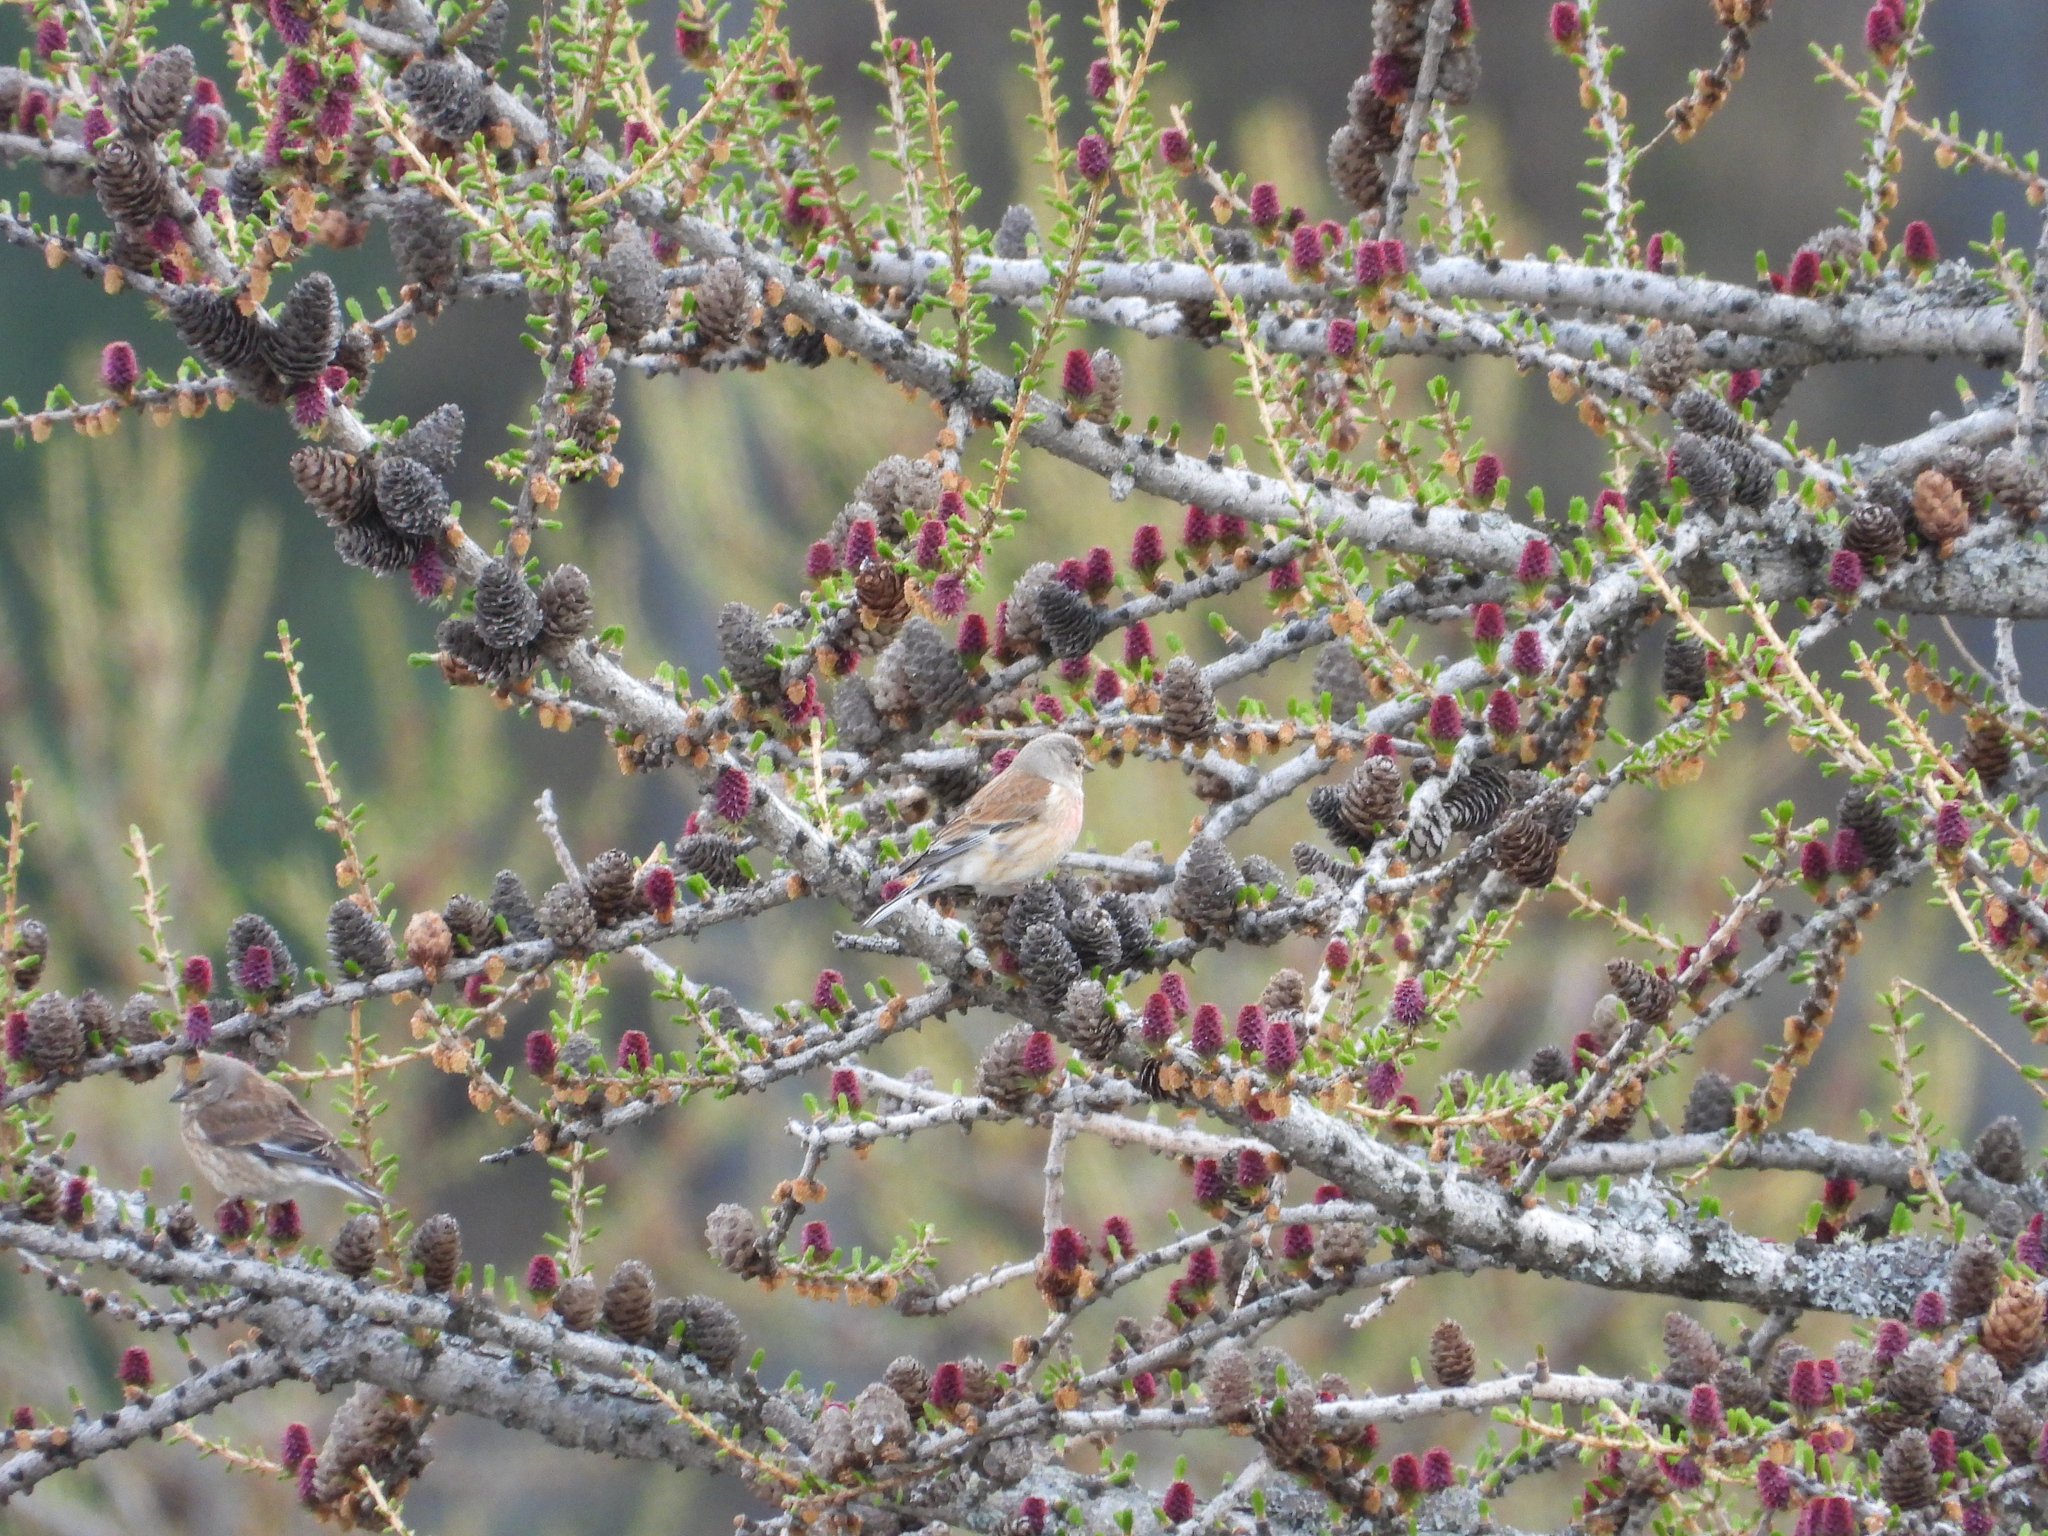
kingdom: Animalia
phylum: Chordata
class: Aves
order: Passeriformes
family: Fringillidae
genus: Linaria
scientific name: Linaria cannabina
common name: Common linnet
